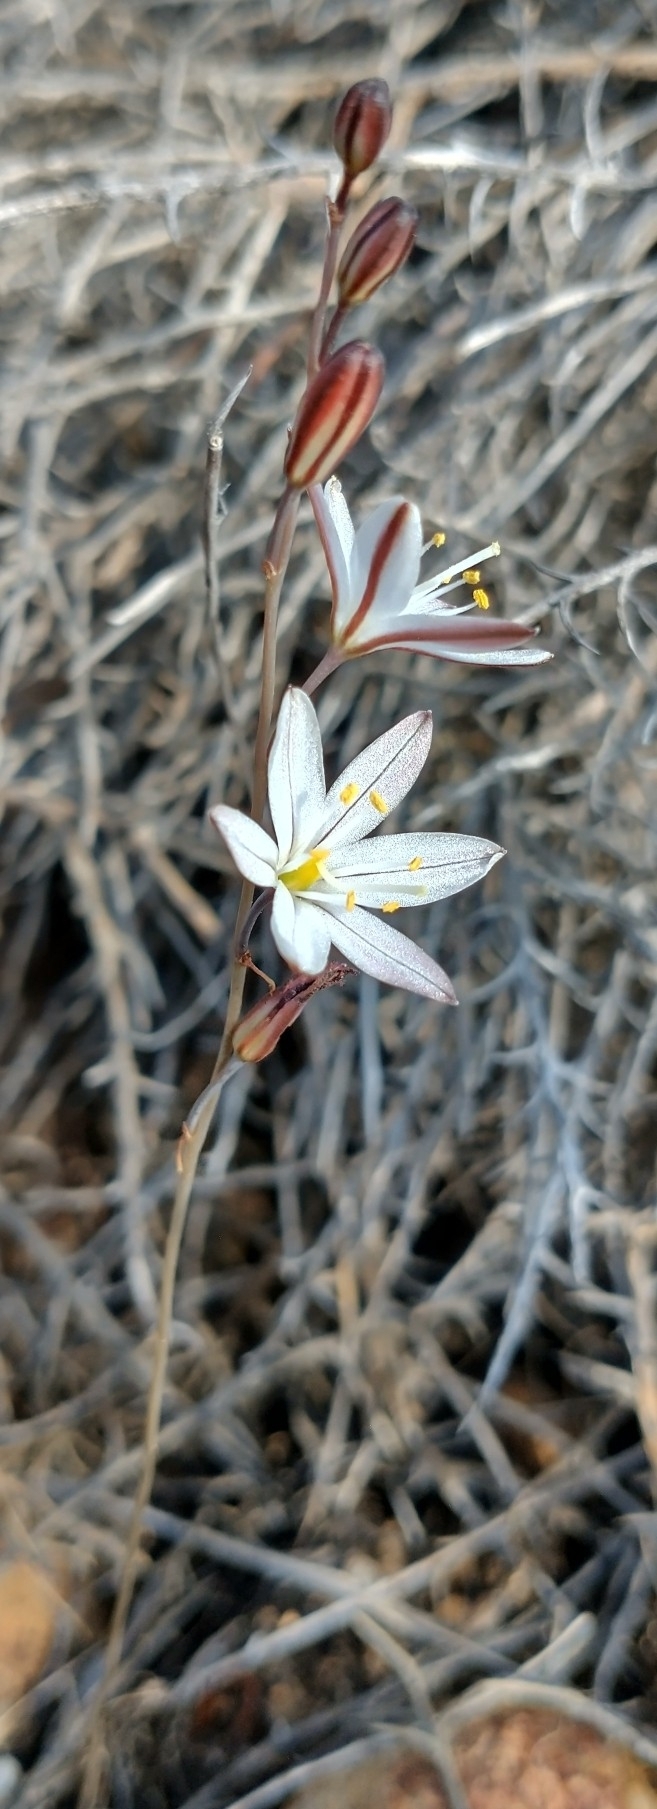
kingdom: Plantae
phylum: Tracheophyta
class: Liliopsida
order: Asparagales
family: Asparagaceae
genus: Drimia
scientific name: Drimia fugax
